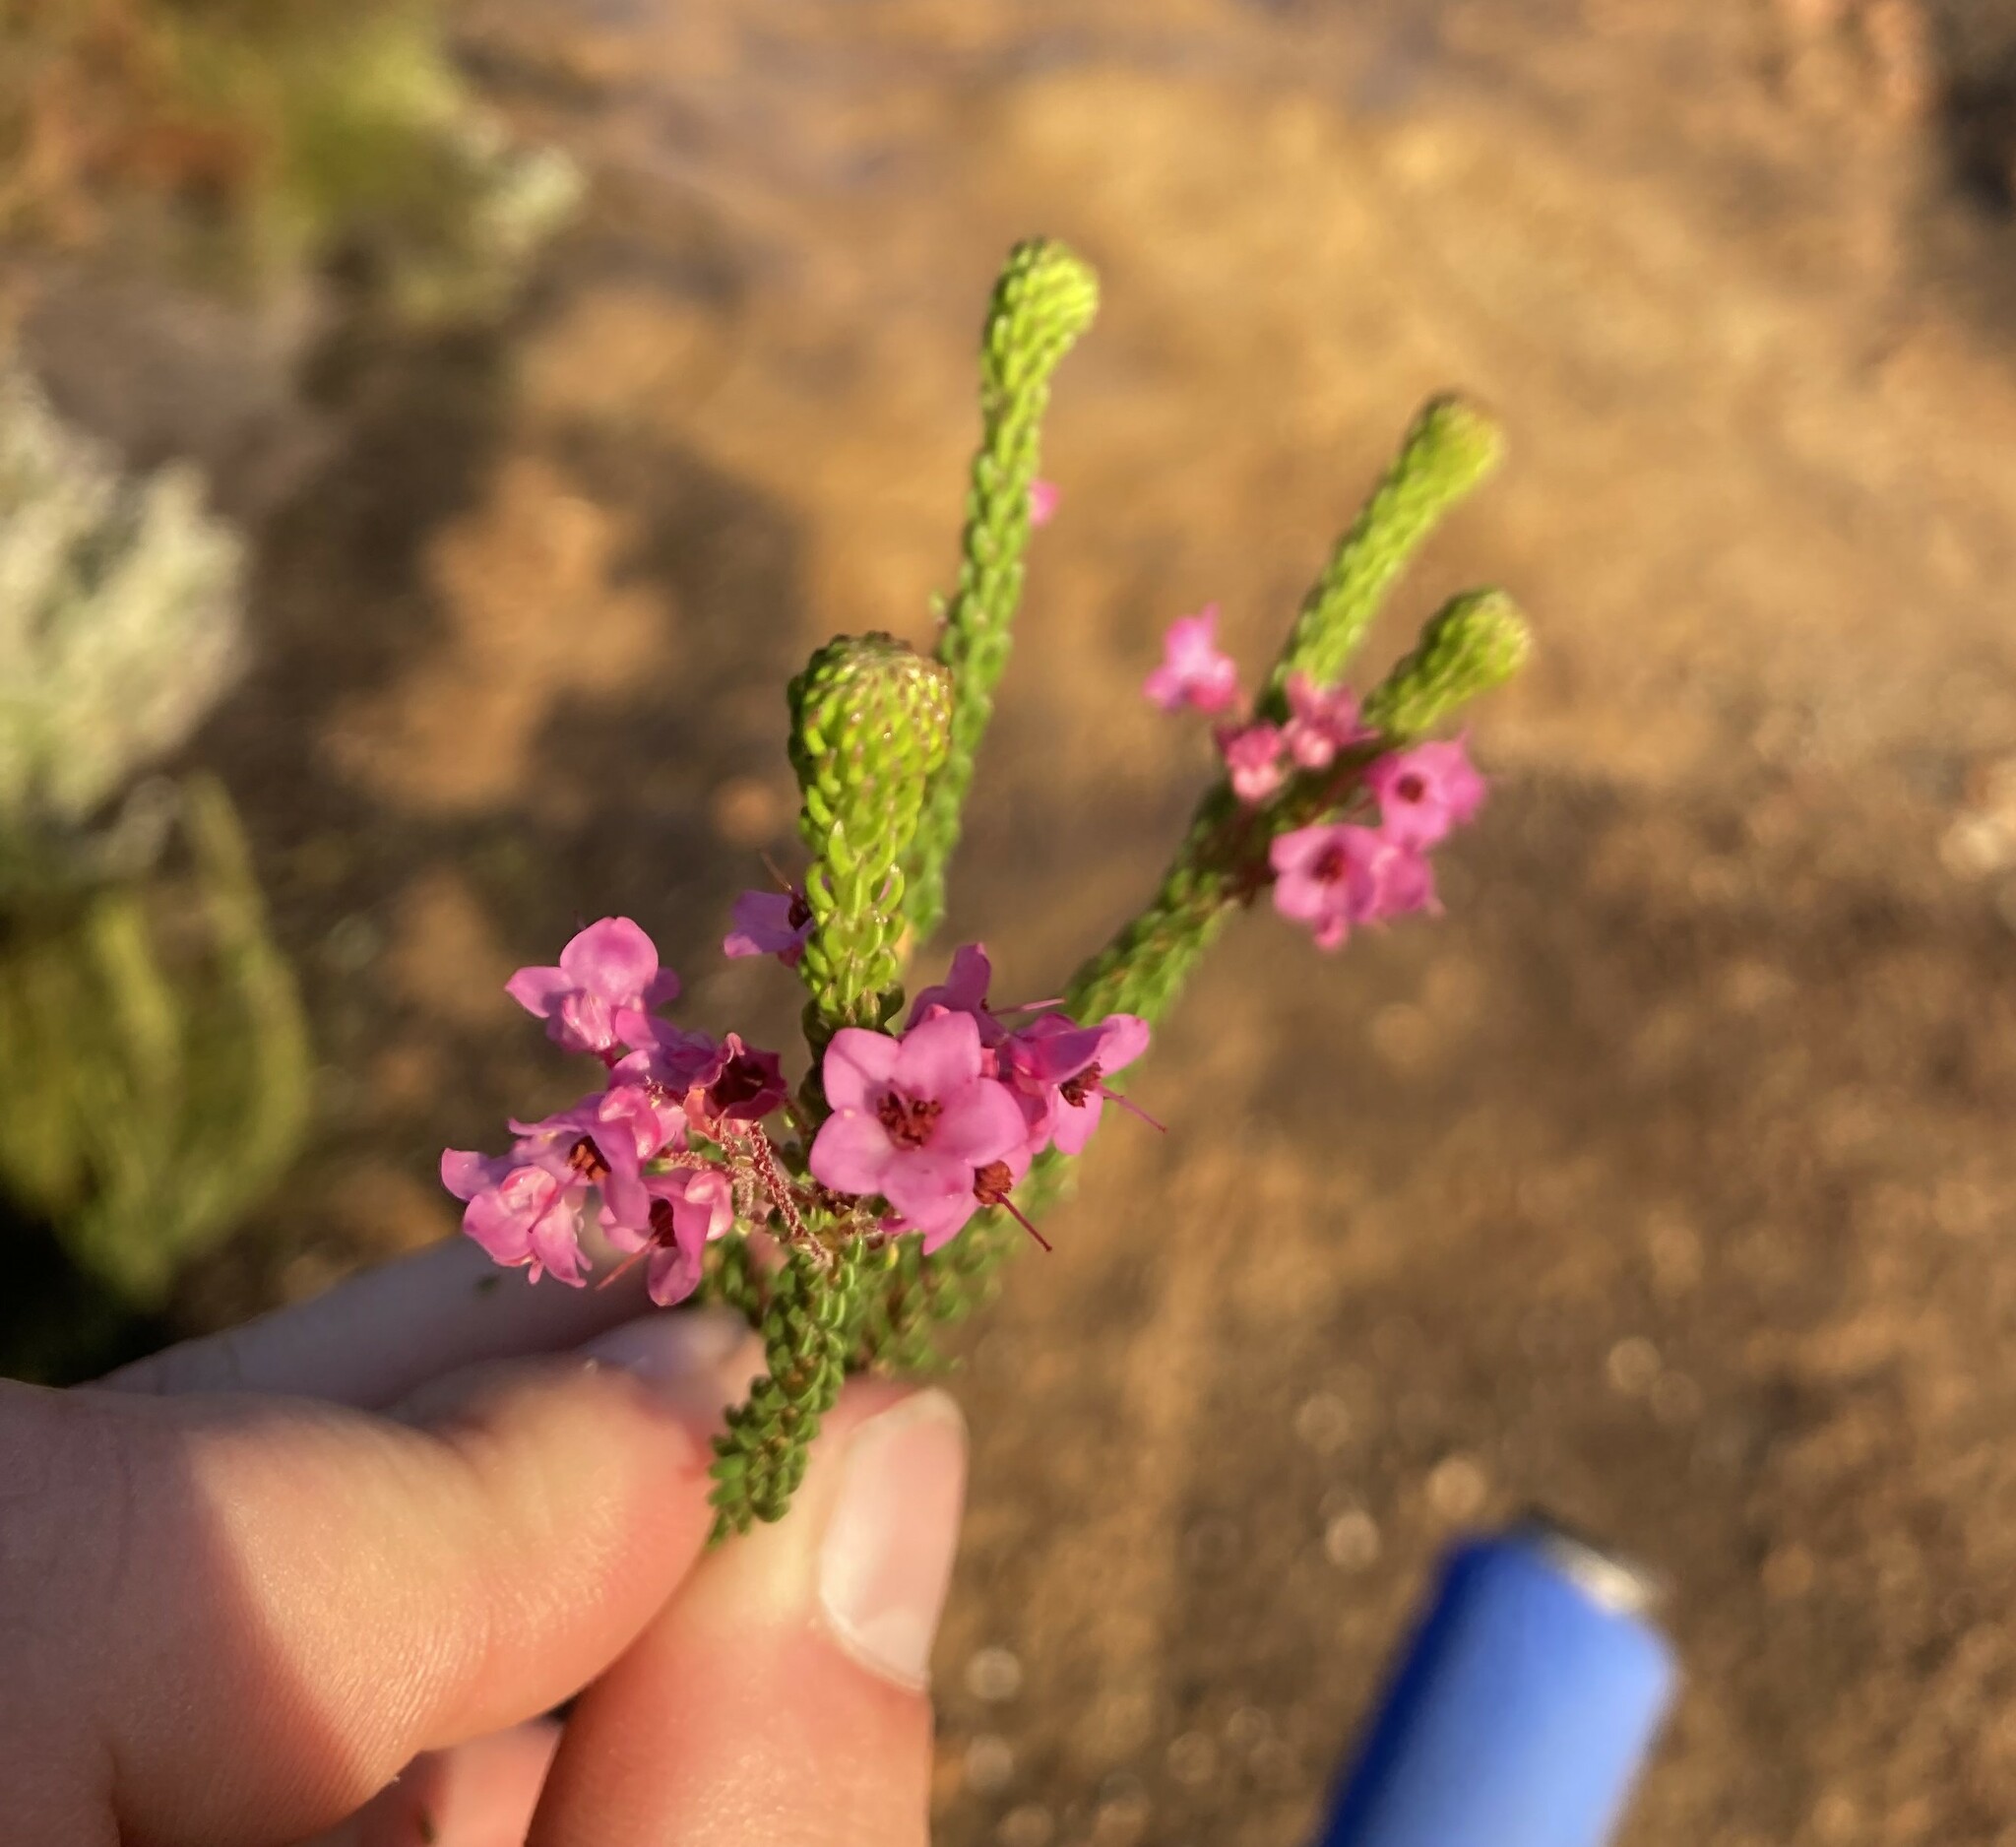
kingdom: Plantae
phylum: Tracheophyta
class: Magnoliopsida
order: Ericales
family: Ericaceae
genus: Erica
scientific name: Erica seriphiifolia
